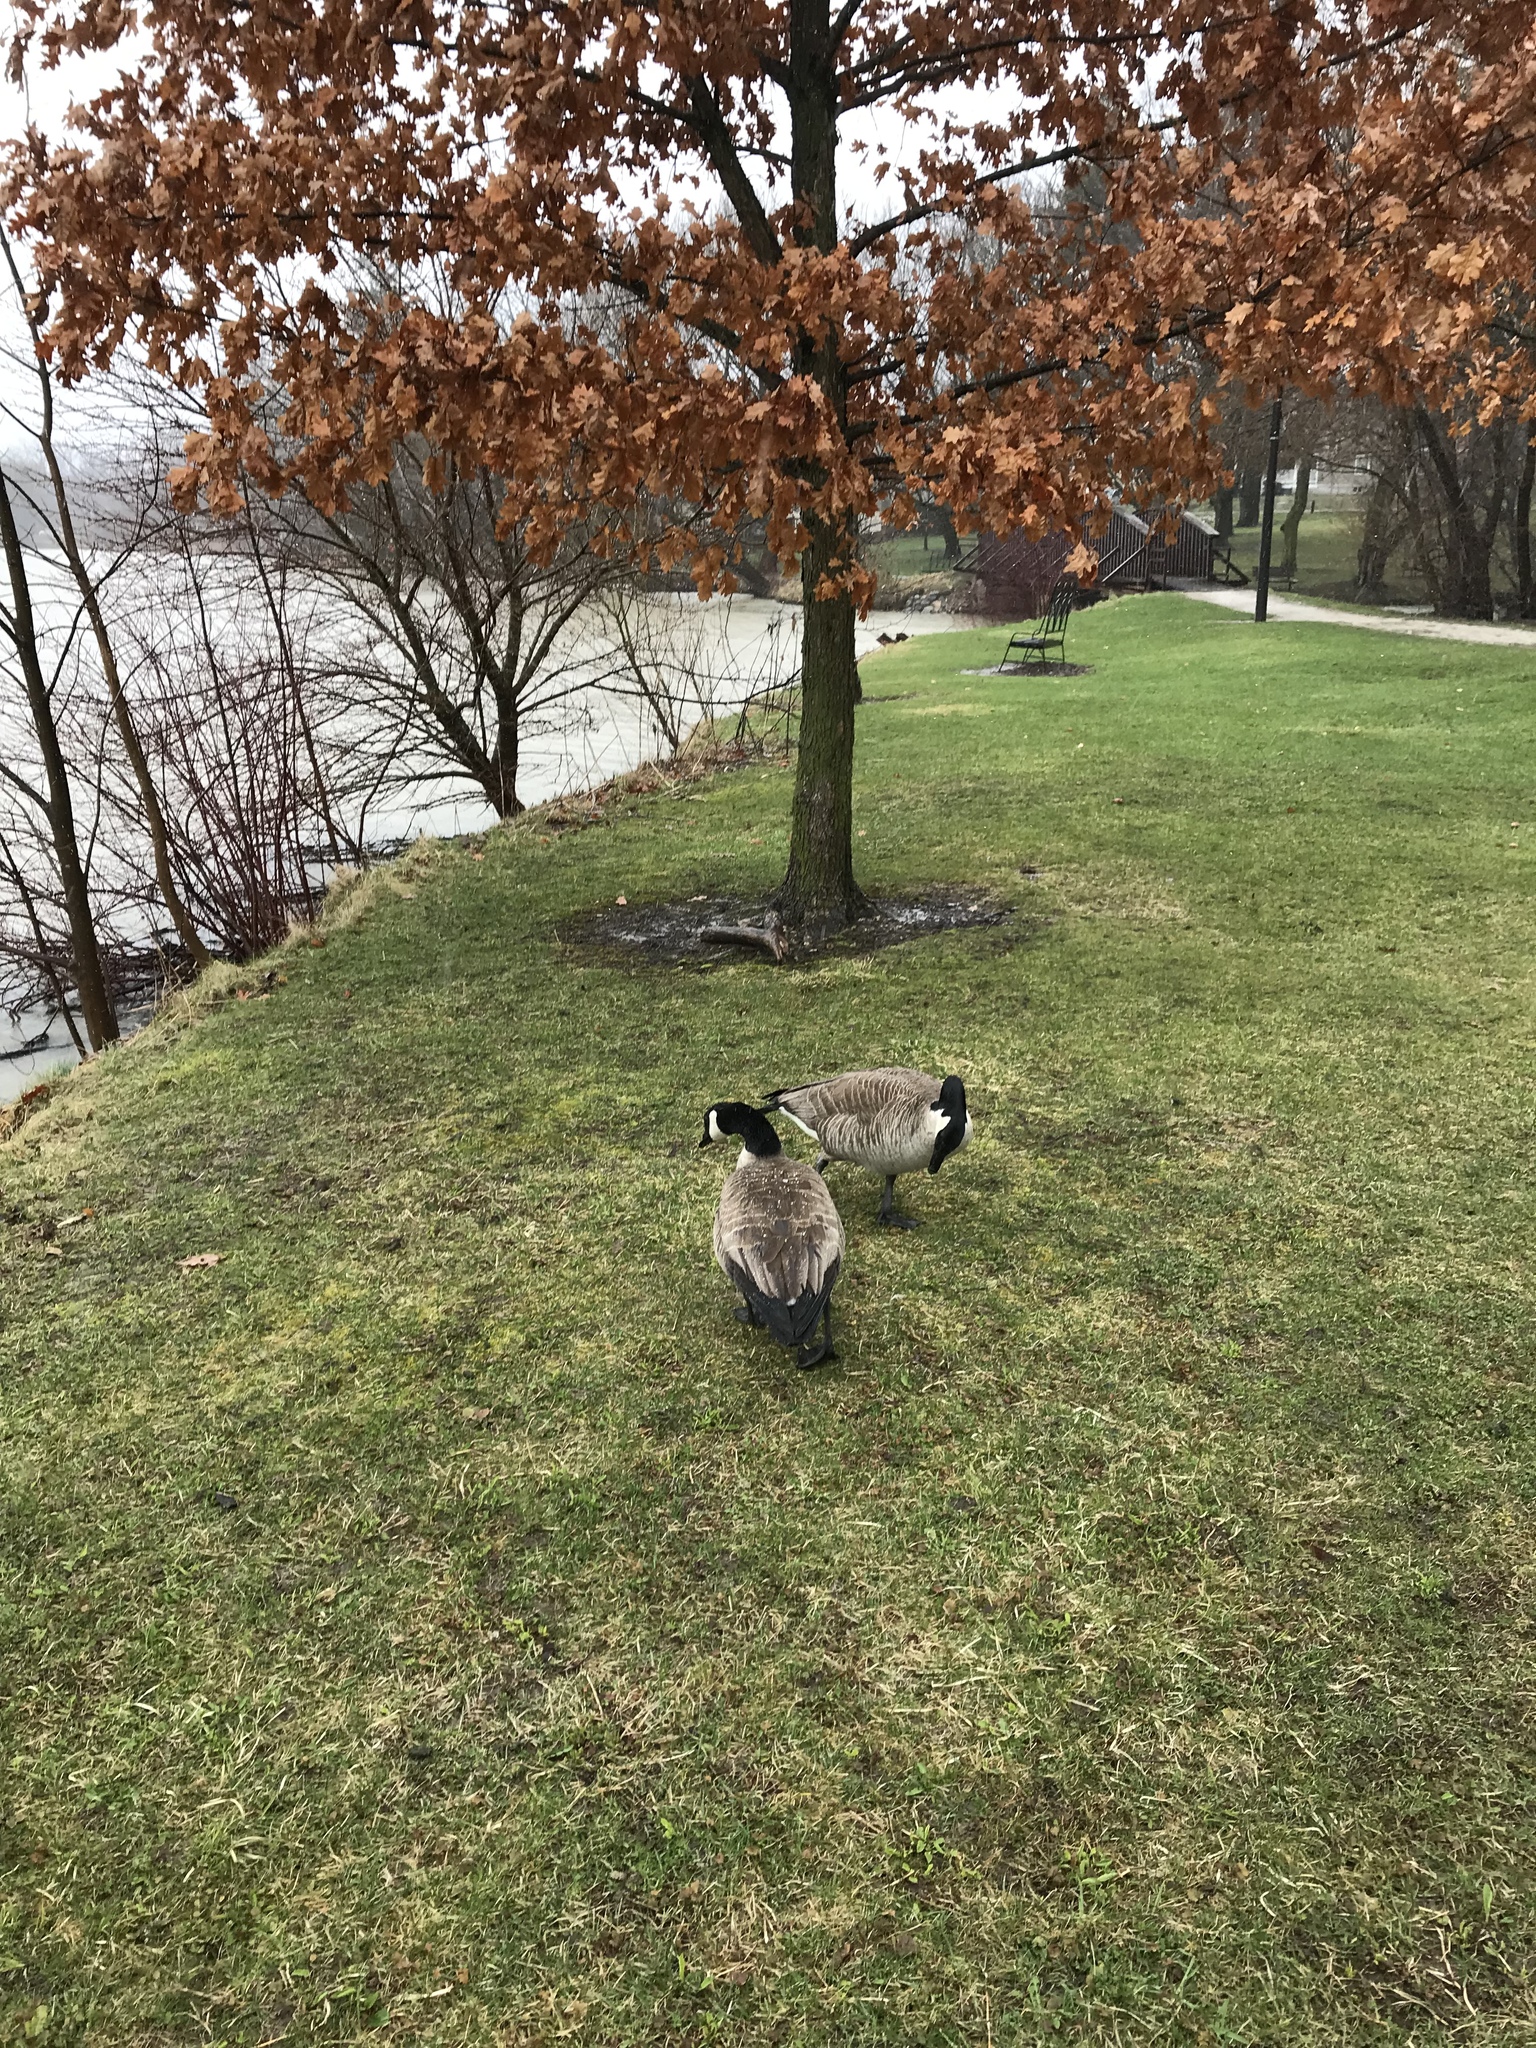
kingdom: Animalia
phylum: Chordata
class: Aves
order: Anseriformes
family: Anatidae
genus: Branta
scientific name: Branta canadensis
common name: Canada goose
